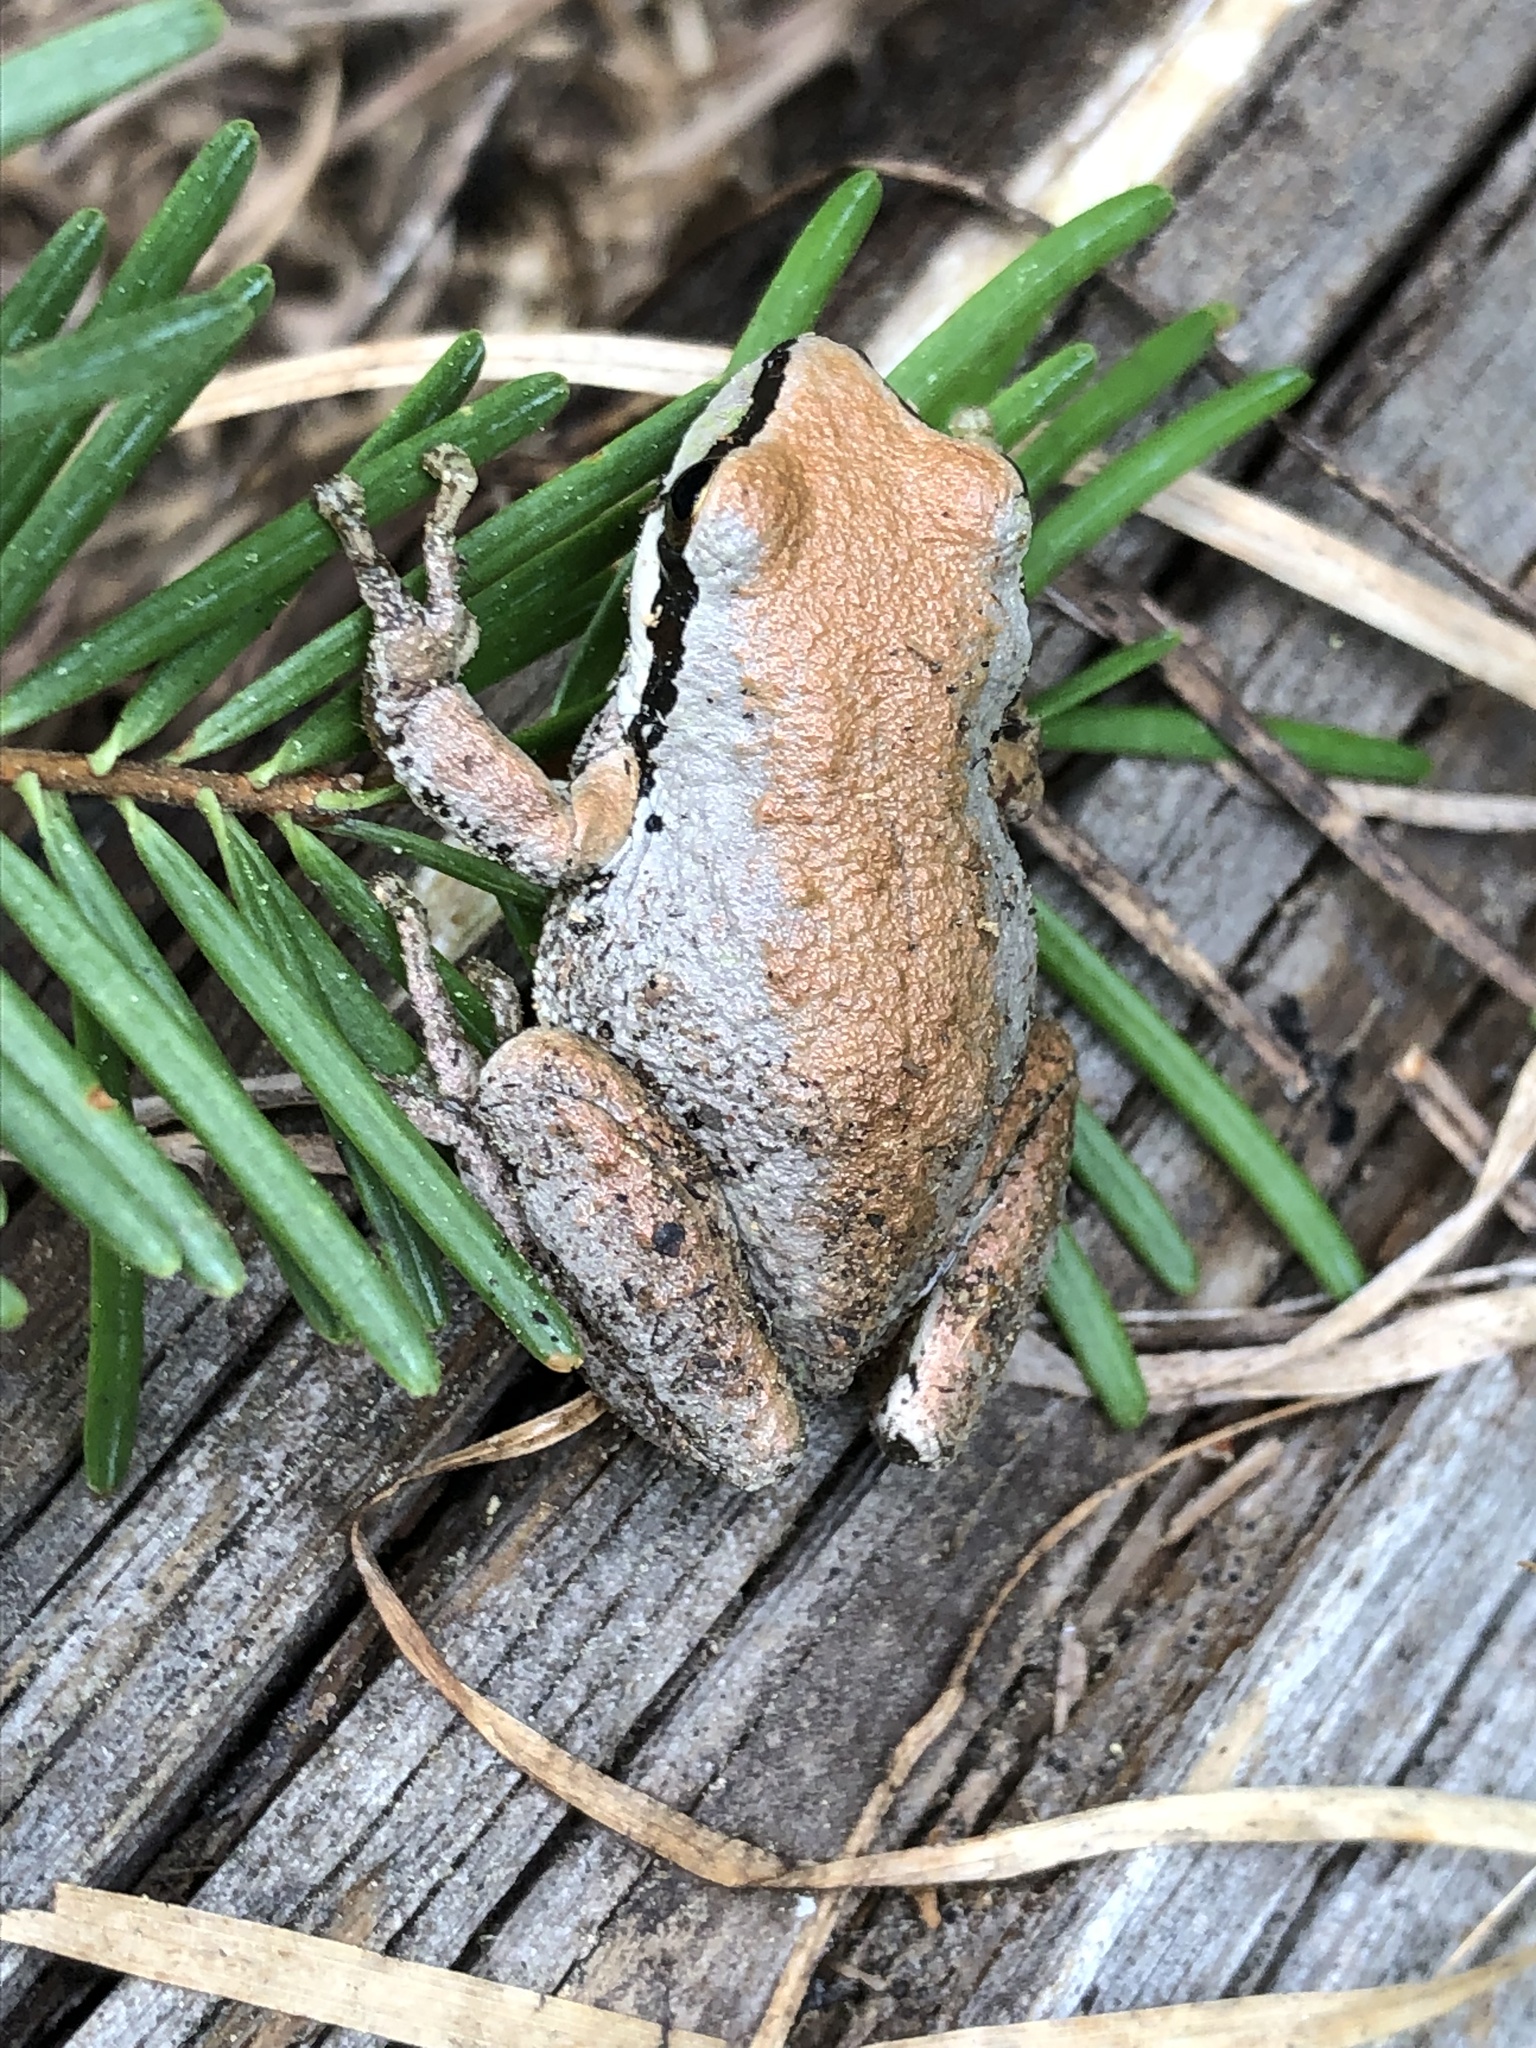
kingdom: Animalia
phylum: Chordata
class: Amphibia
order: Anura
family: Hylidae
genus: Pseudacris
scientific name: Pseudacris regilla
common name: Pacific chorus frog
